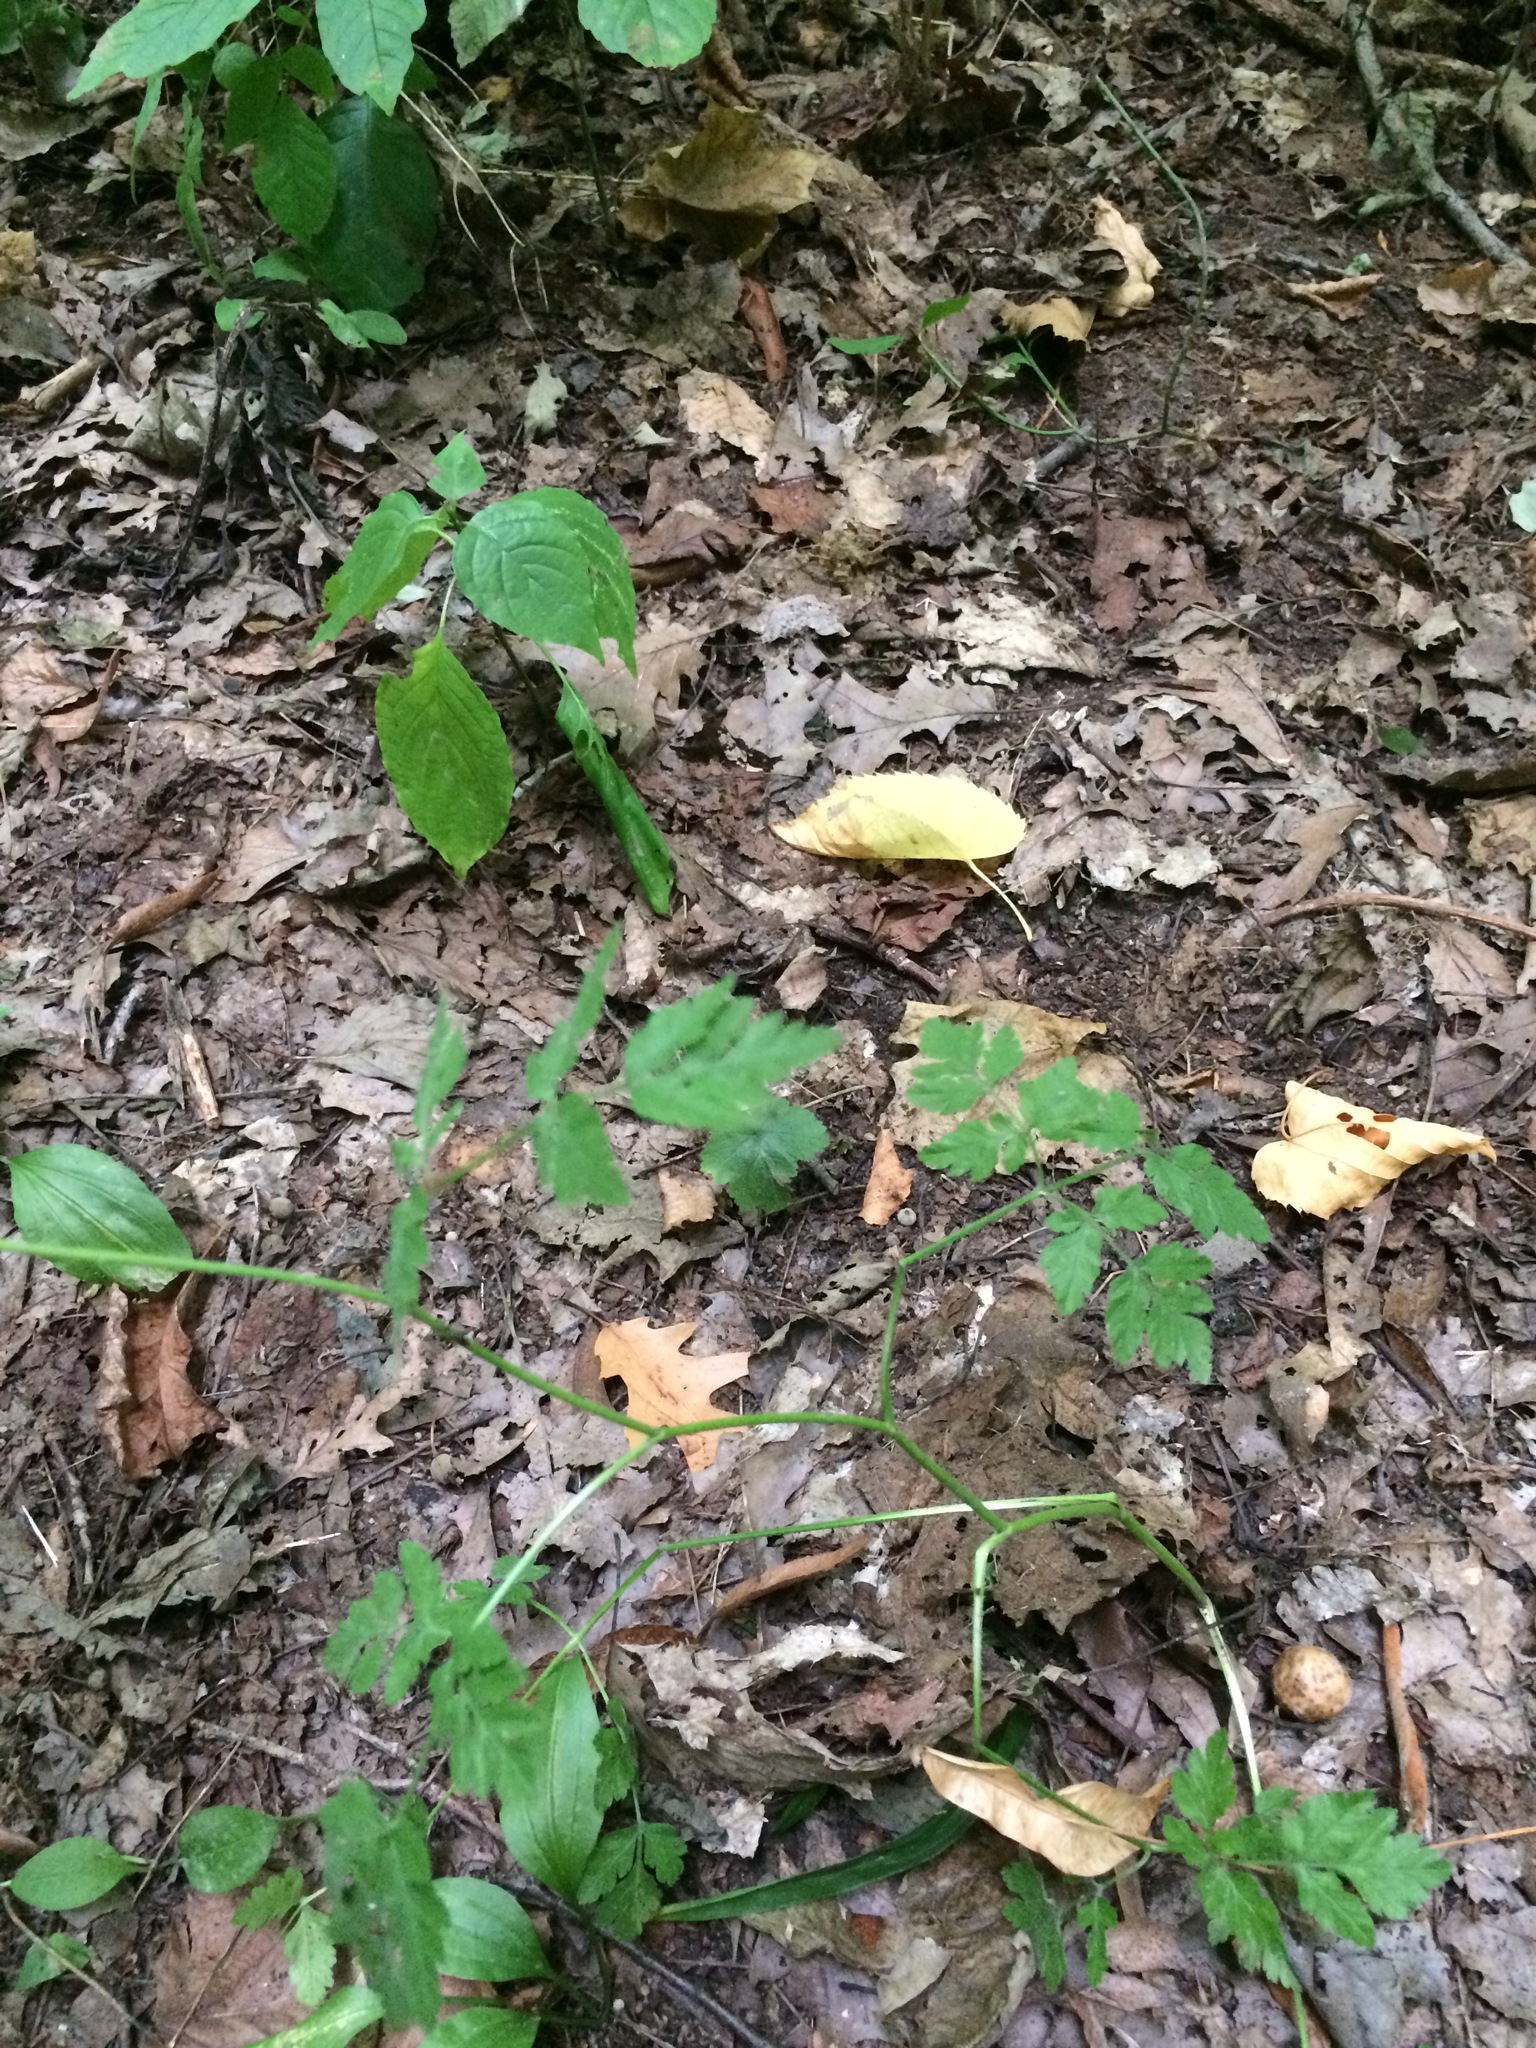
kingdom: Plantae
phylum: Tracheophyta
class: Magnoliopsida
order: Apiales
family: Apiaceae
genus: Torilis
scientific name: Torilis japonica
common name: Upright hedge-parsley
